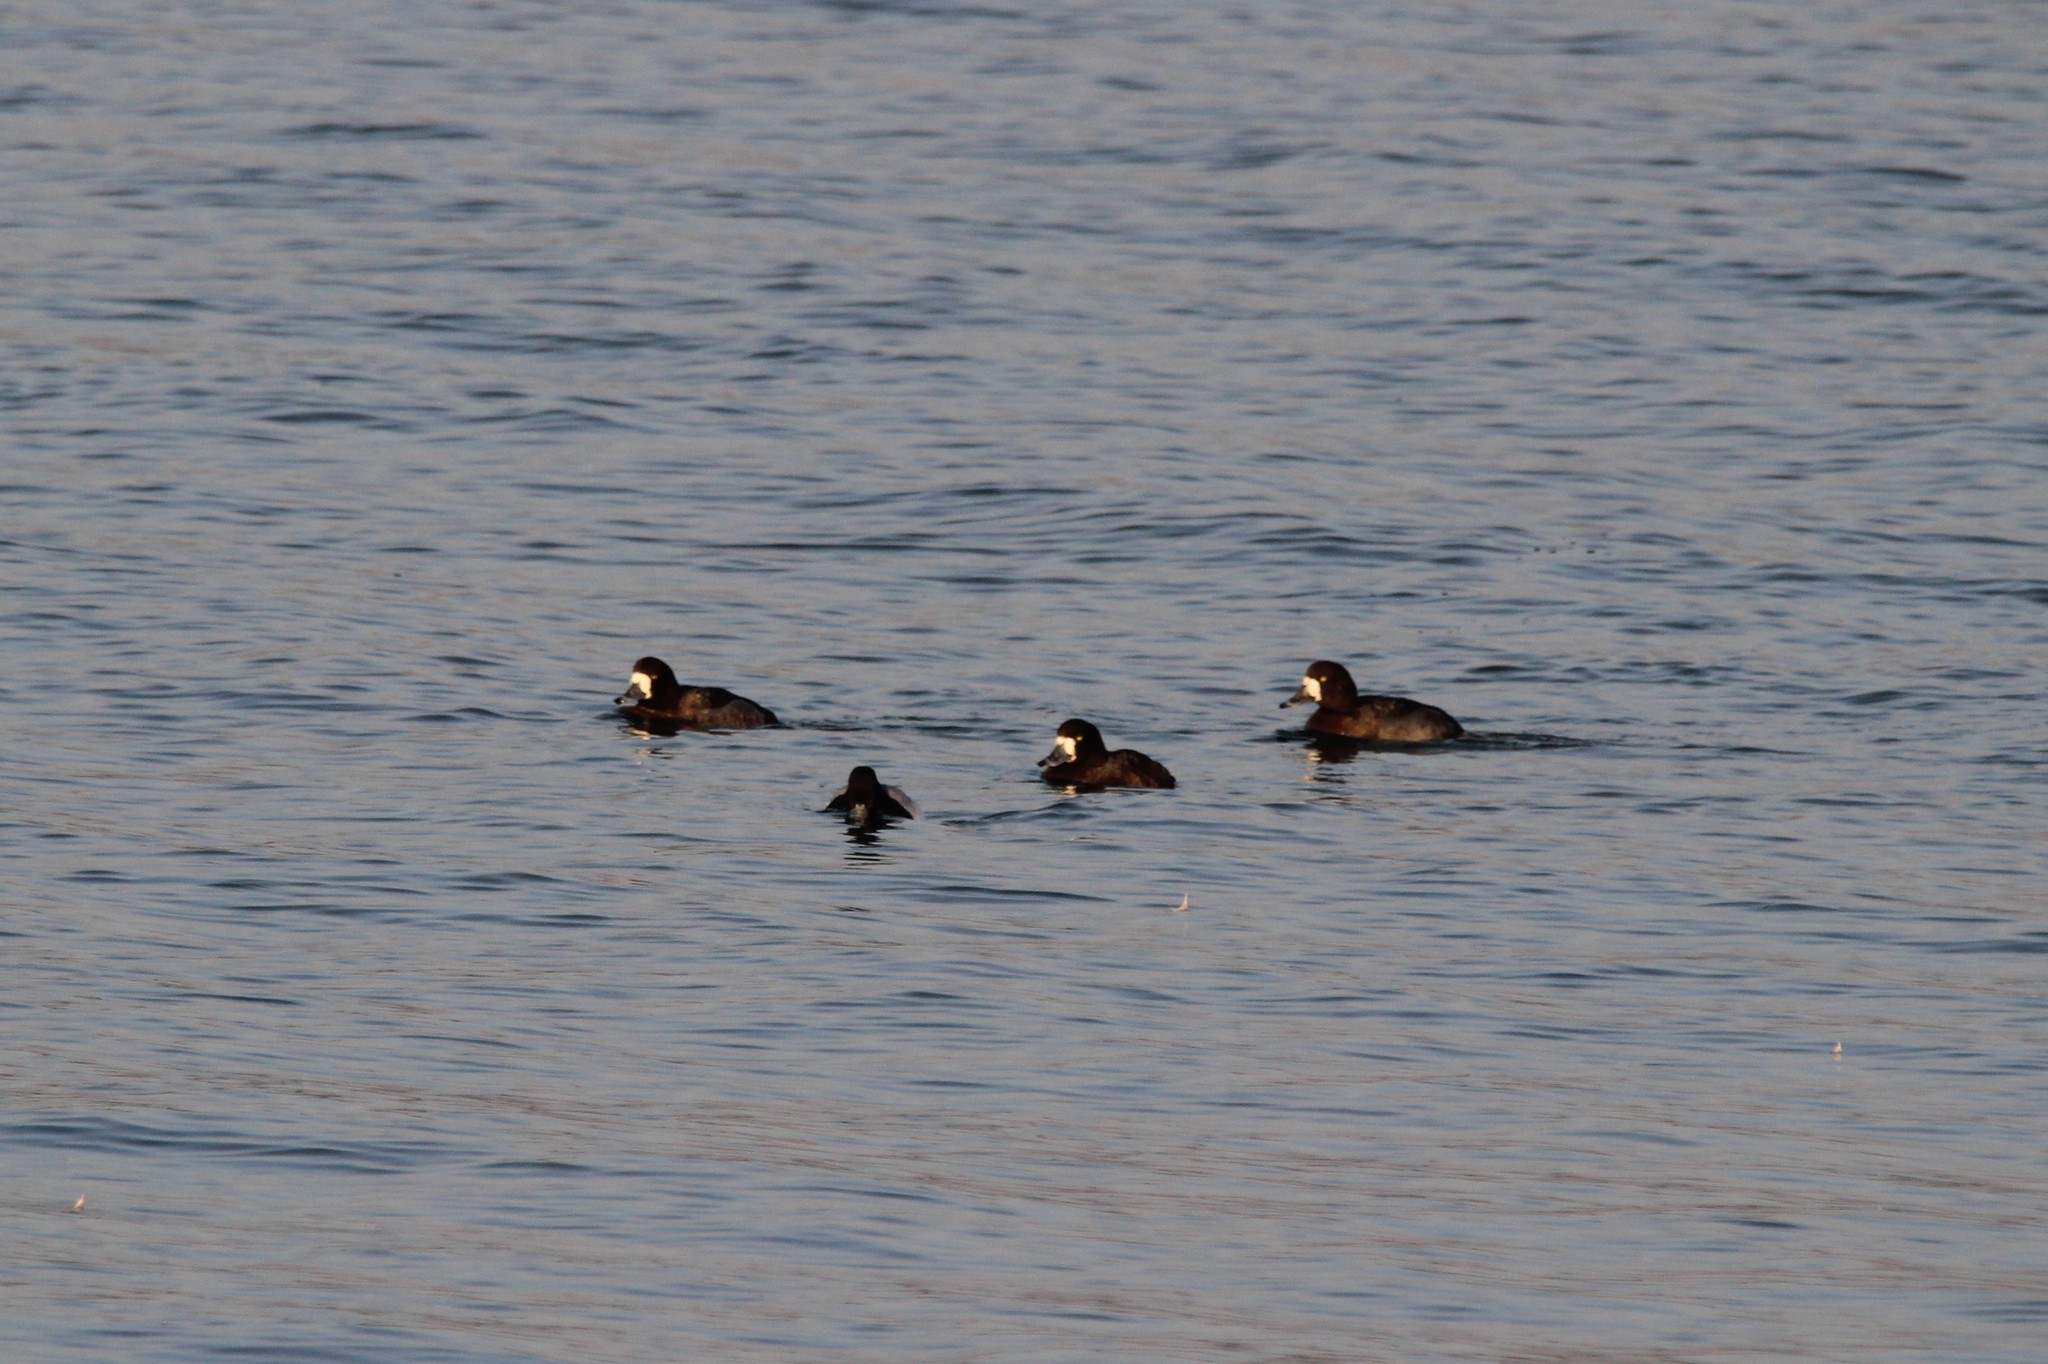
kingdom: Animalia
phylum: Chordata
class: Aves
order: Anseriformes
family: Anatidae
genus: Aythya
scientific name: Aythya marila
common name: Greater scaup
